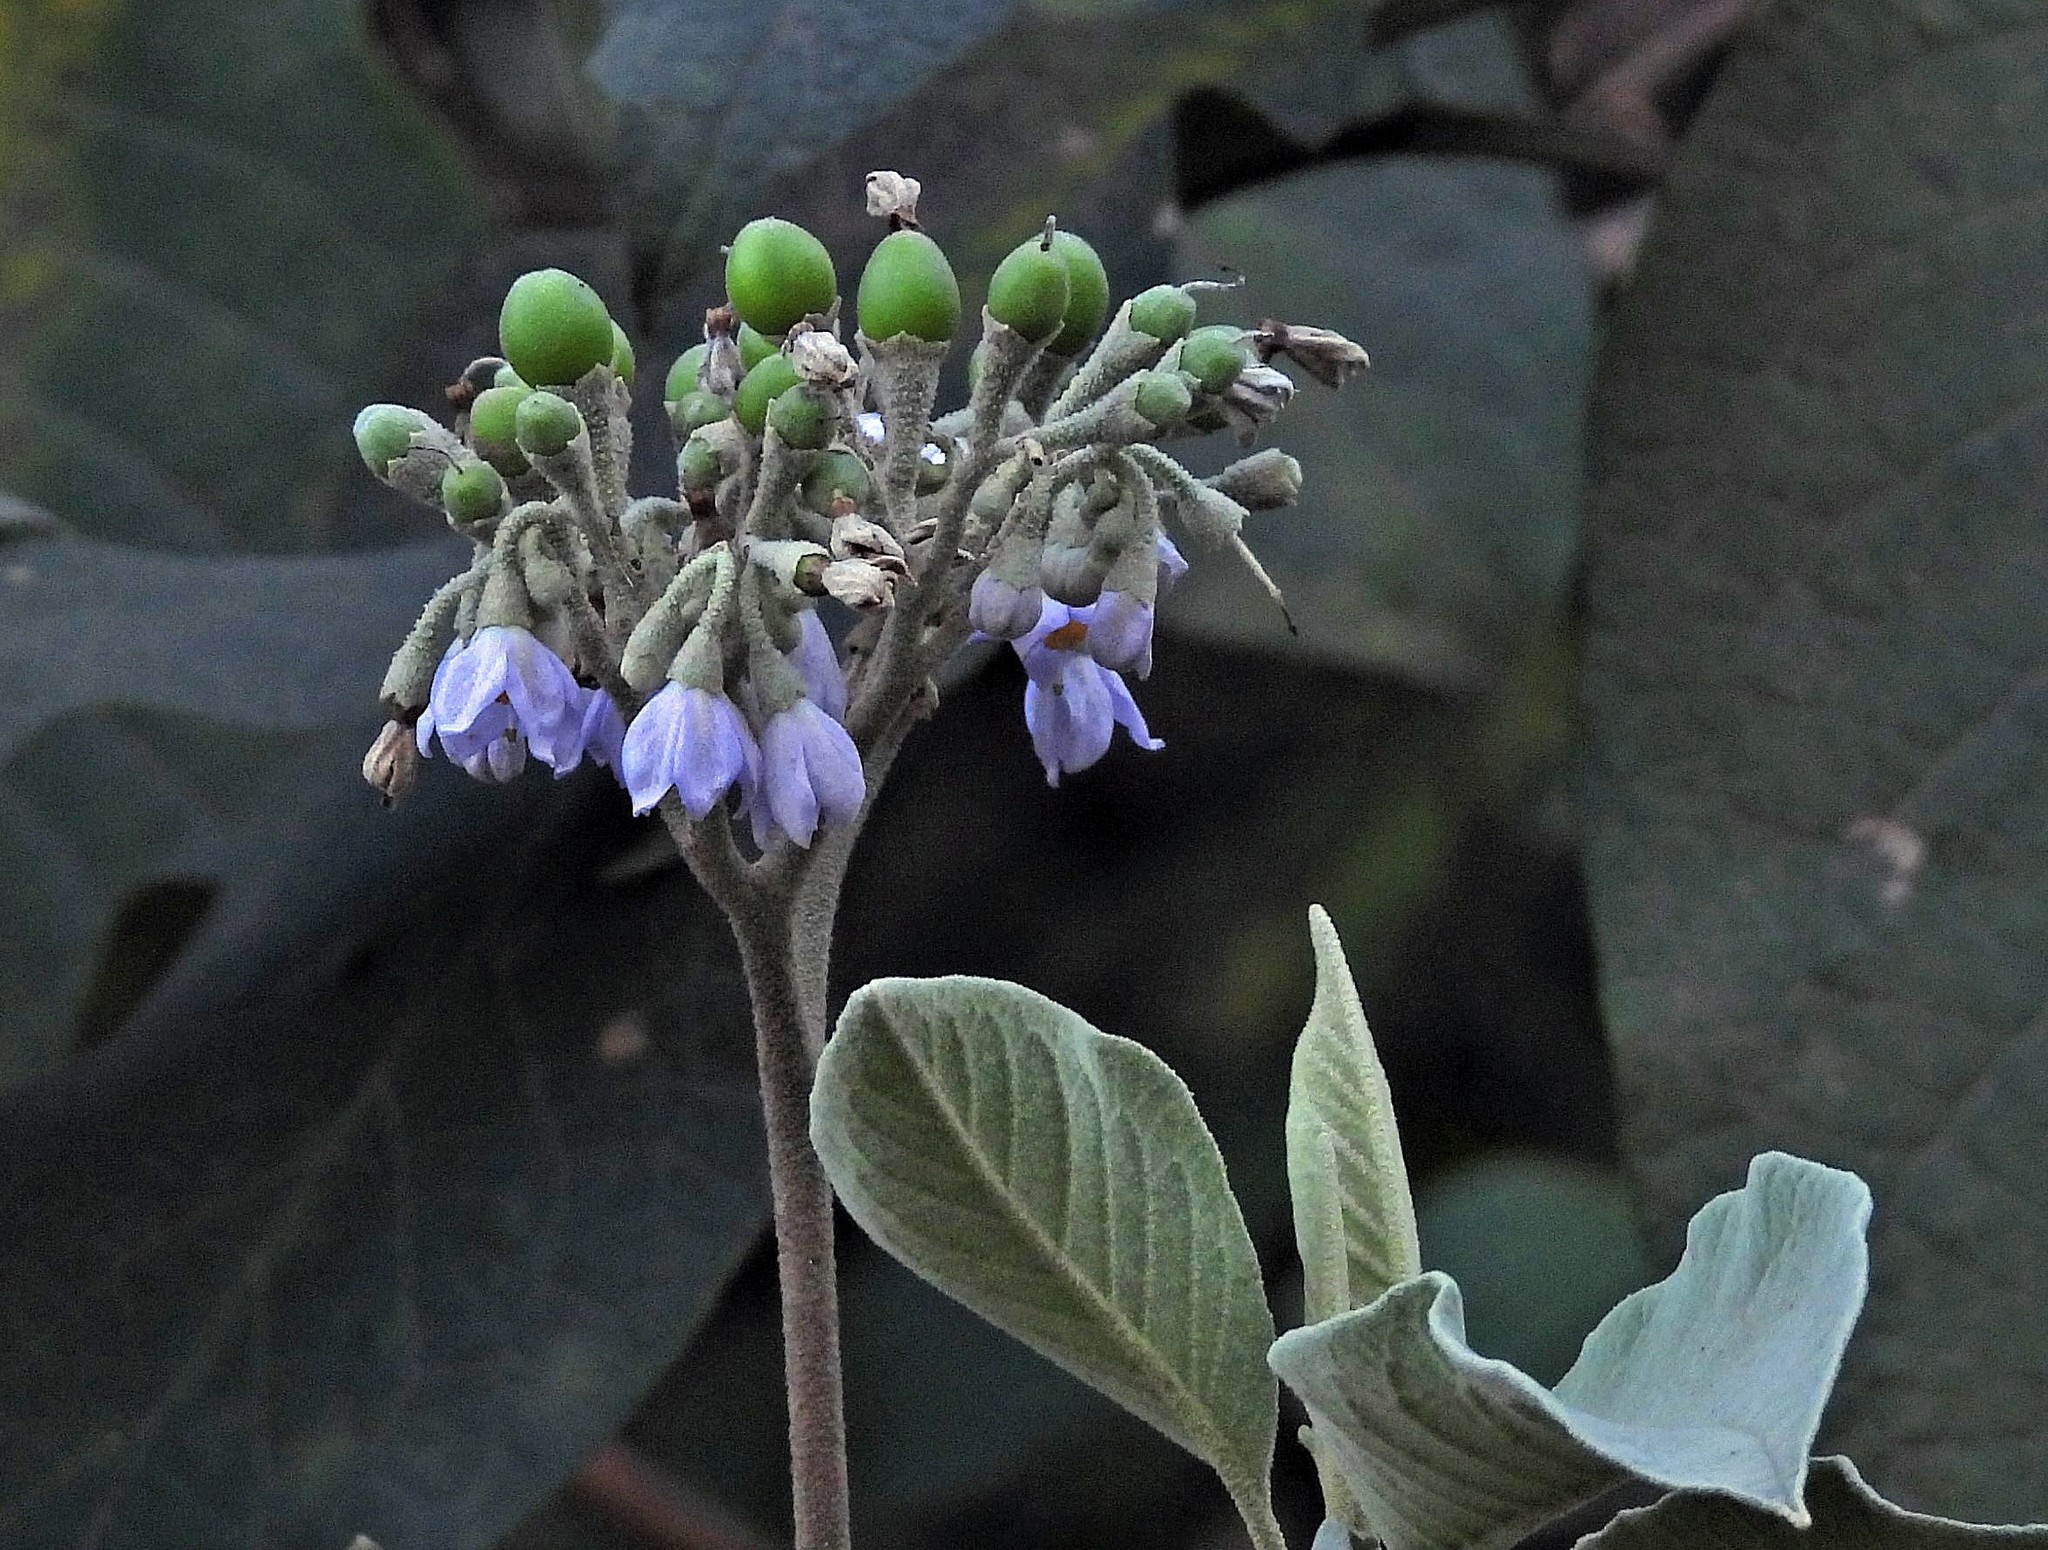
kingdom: Plantae
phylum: Tracheophyta
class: Magnoliopsida
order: Solanales
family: Solanaceae
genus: Solanum
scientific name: Solanum granulosoleprosum
